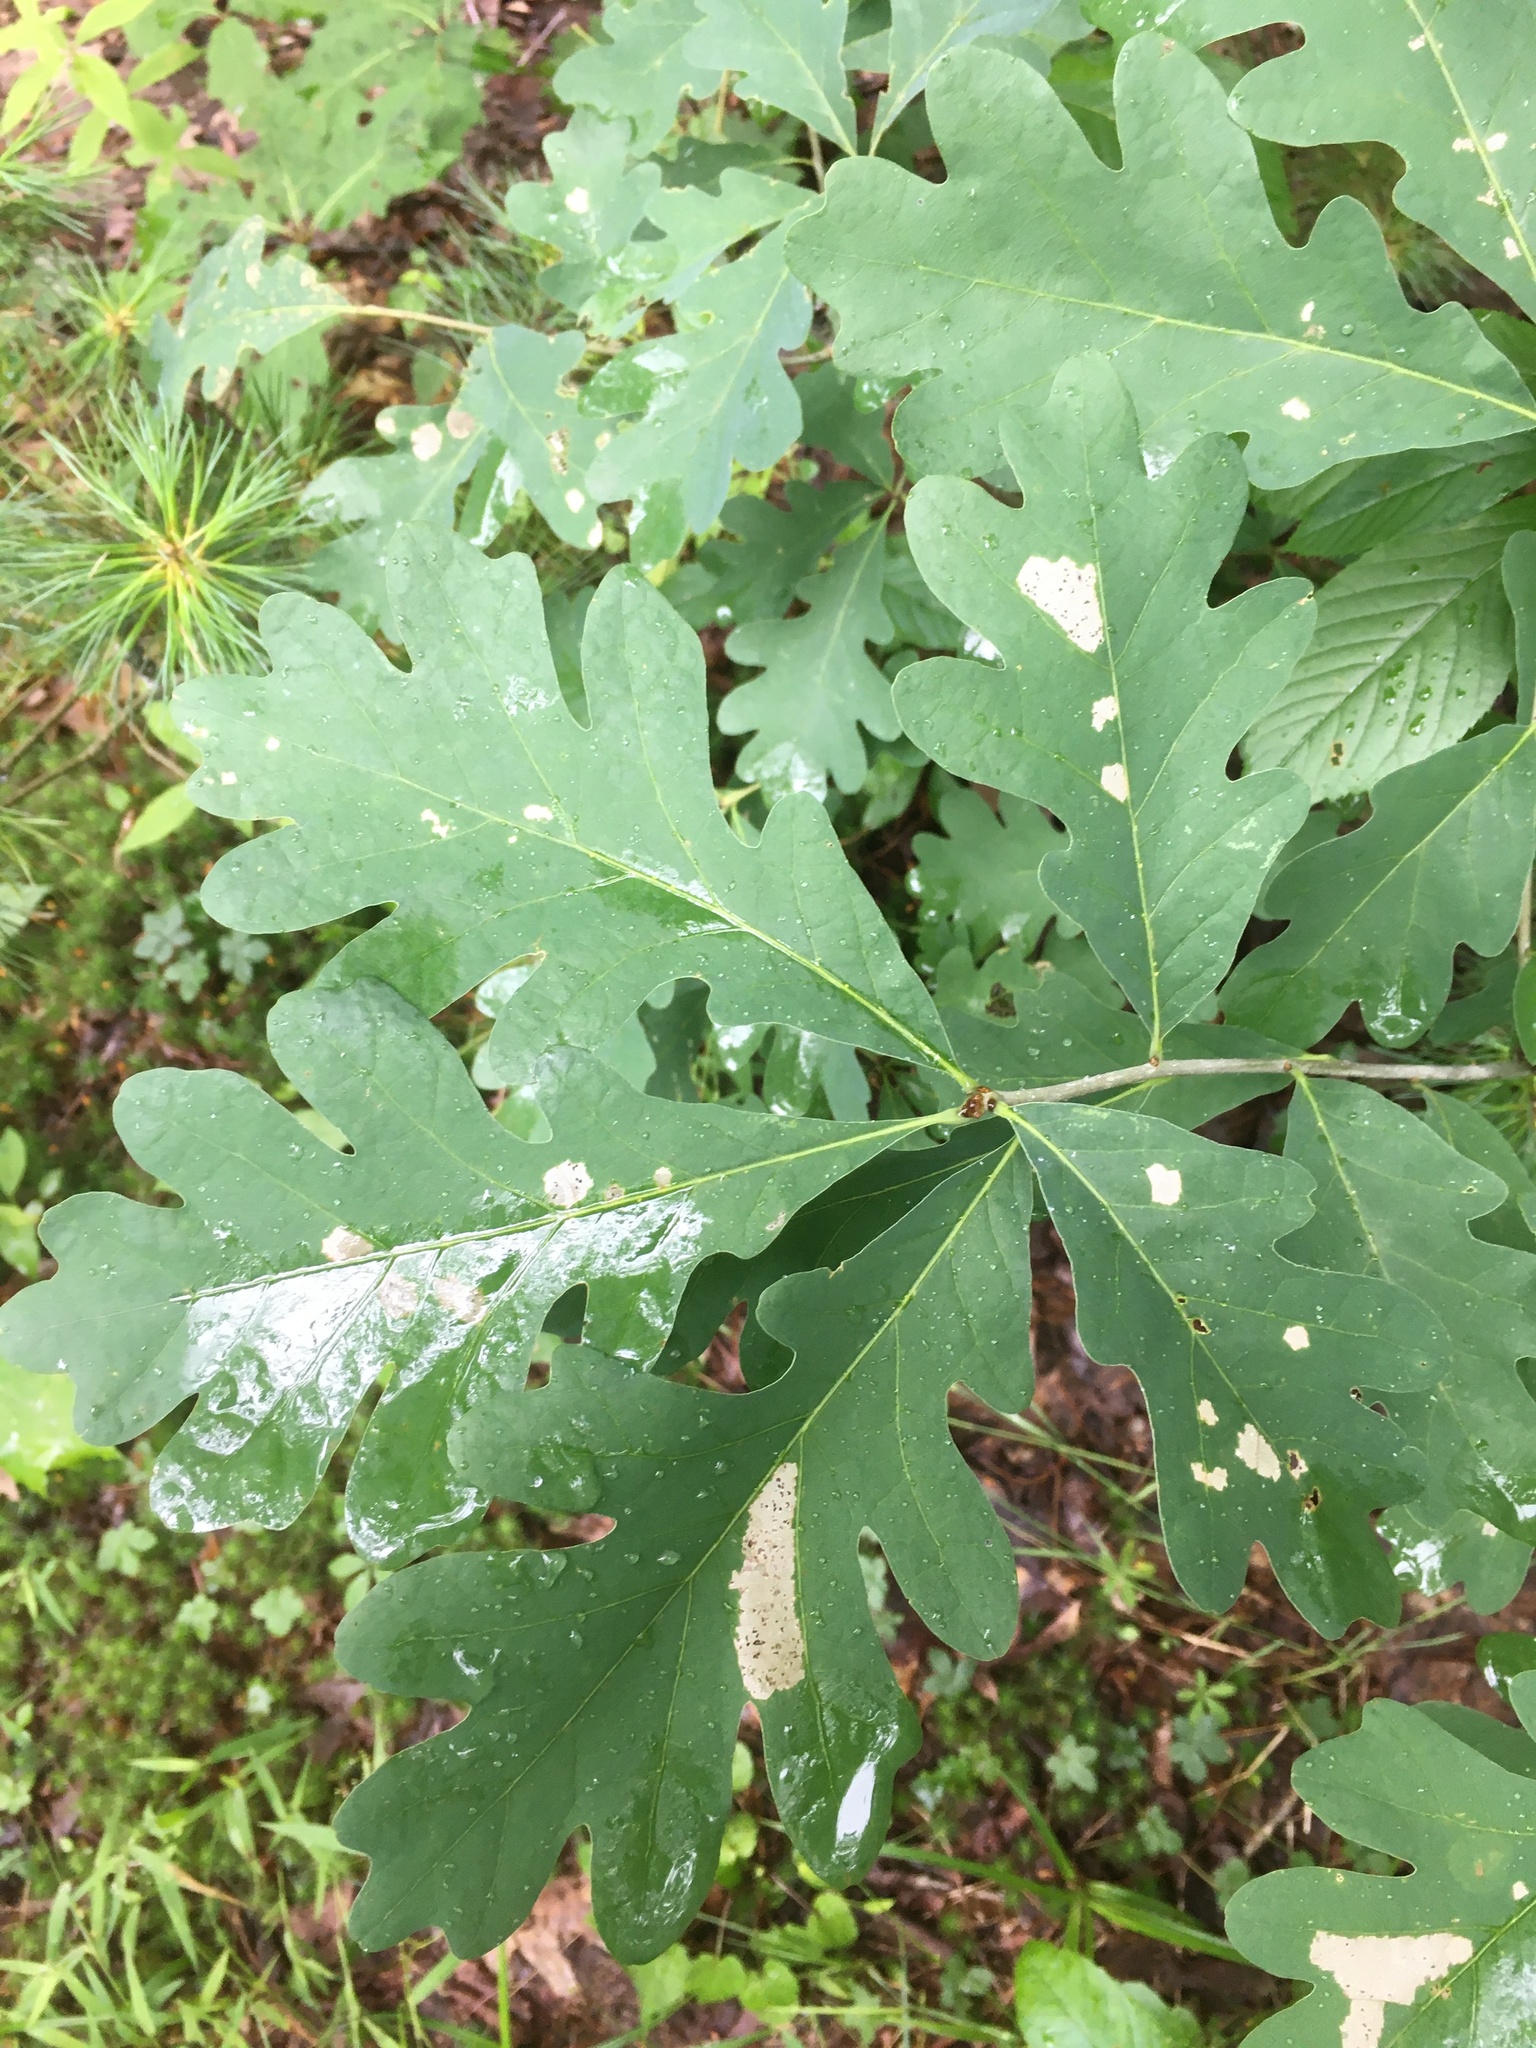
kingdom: Plantae
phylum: Tracheophyta
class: Magnoliopsida
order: Fagales
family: Fagaceae
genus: Quercus
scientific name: Quercus alba
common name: White oak
